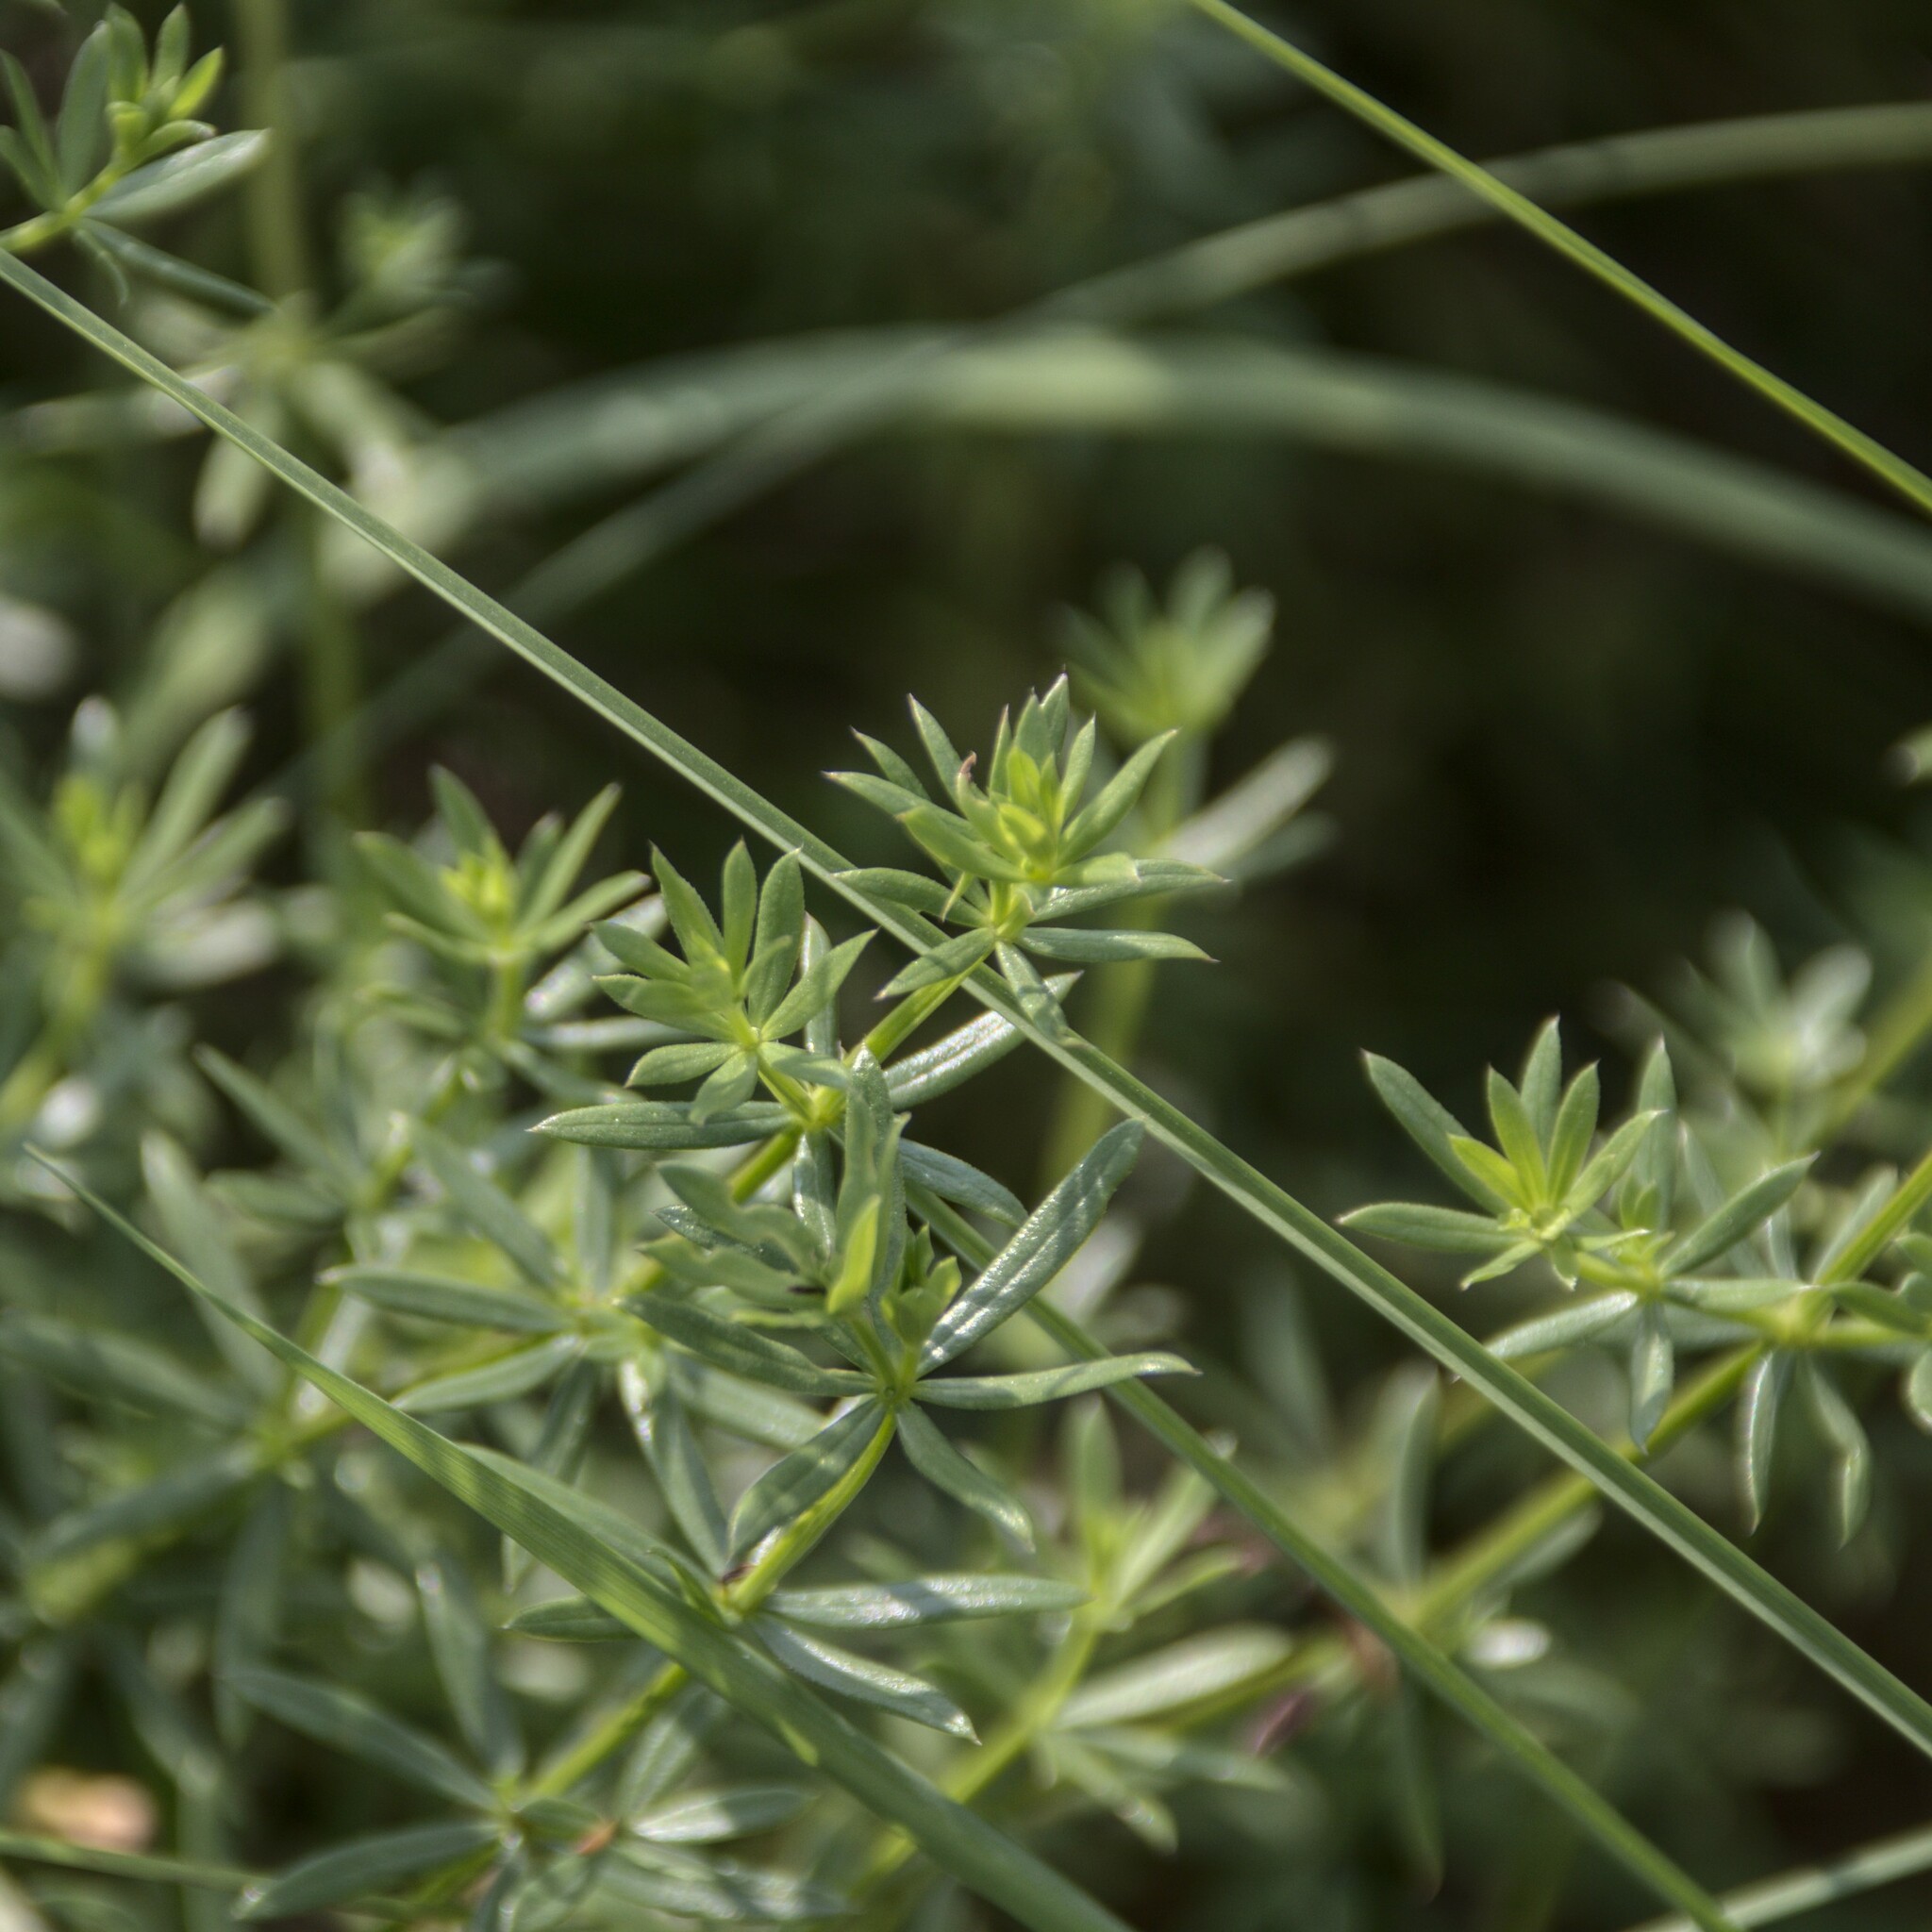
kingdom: Plantae
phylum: Tracheophyta
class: Magnoliopsida
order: Gentianales
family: Rubiaceae
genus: Galium
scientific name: Galium mollugo
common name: Hedge bedstraw
